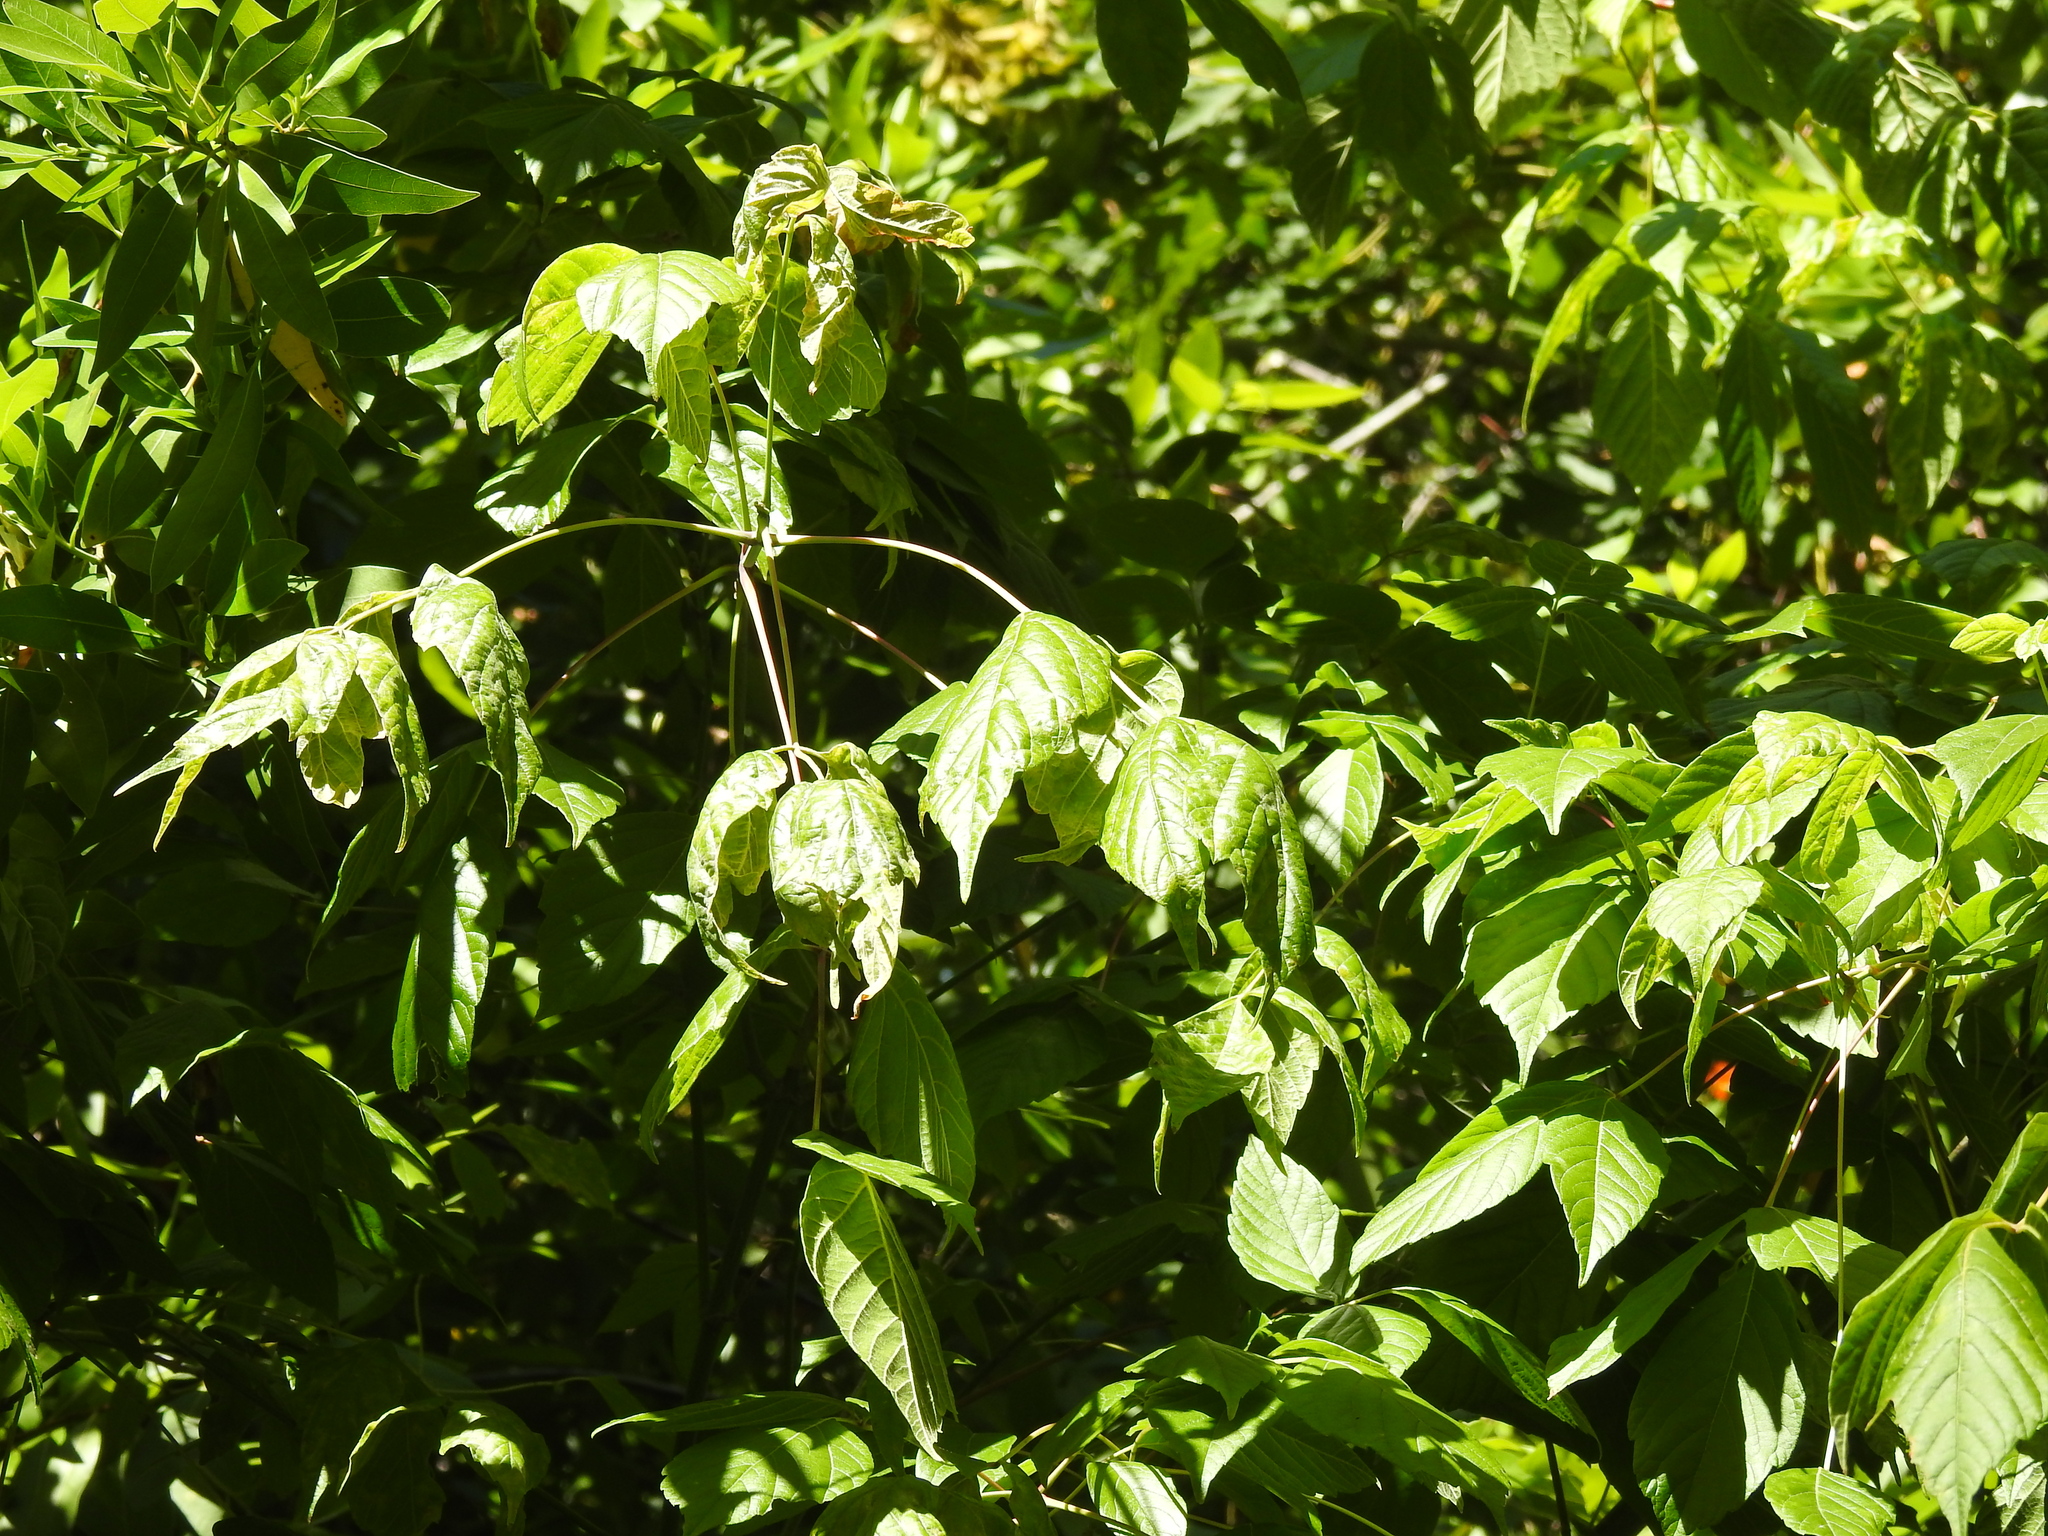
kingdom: Plantae
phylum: Tracheophyta
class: Magnoliopsida
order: Sapindales
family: Sapindaceae
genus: Acer
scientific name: Acer negundo
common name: Ashleaf maple
